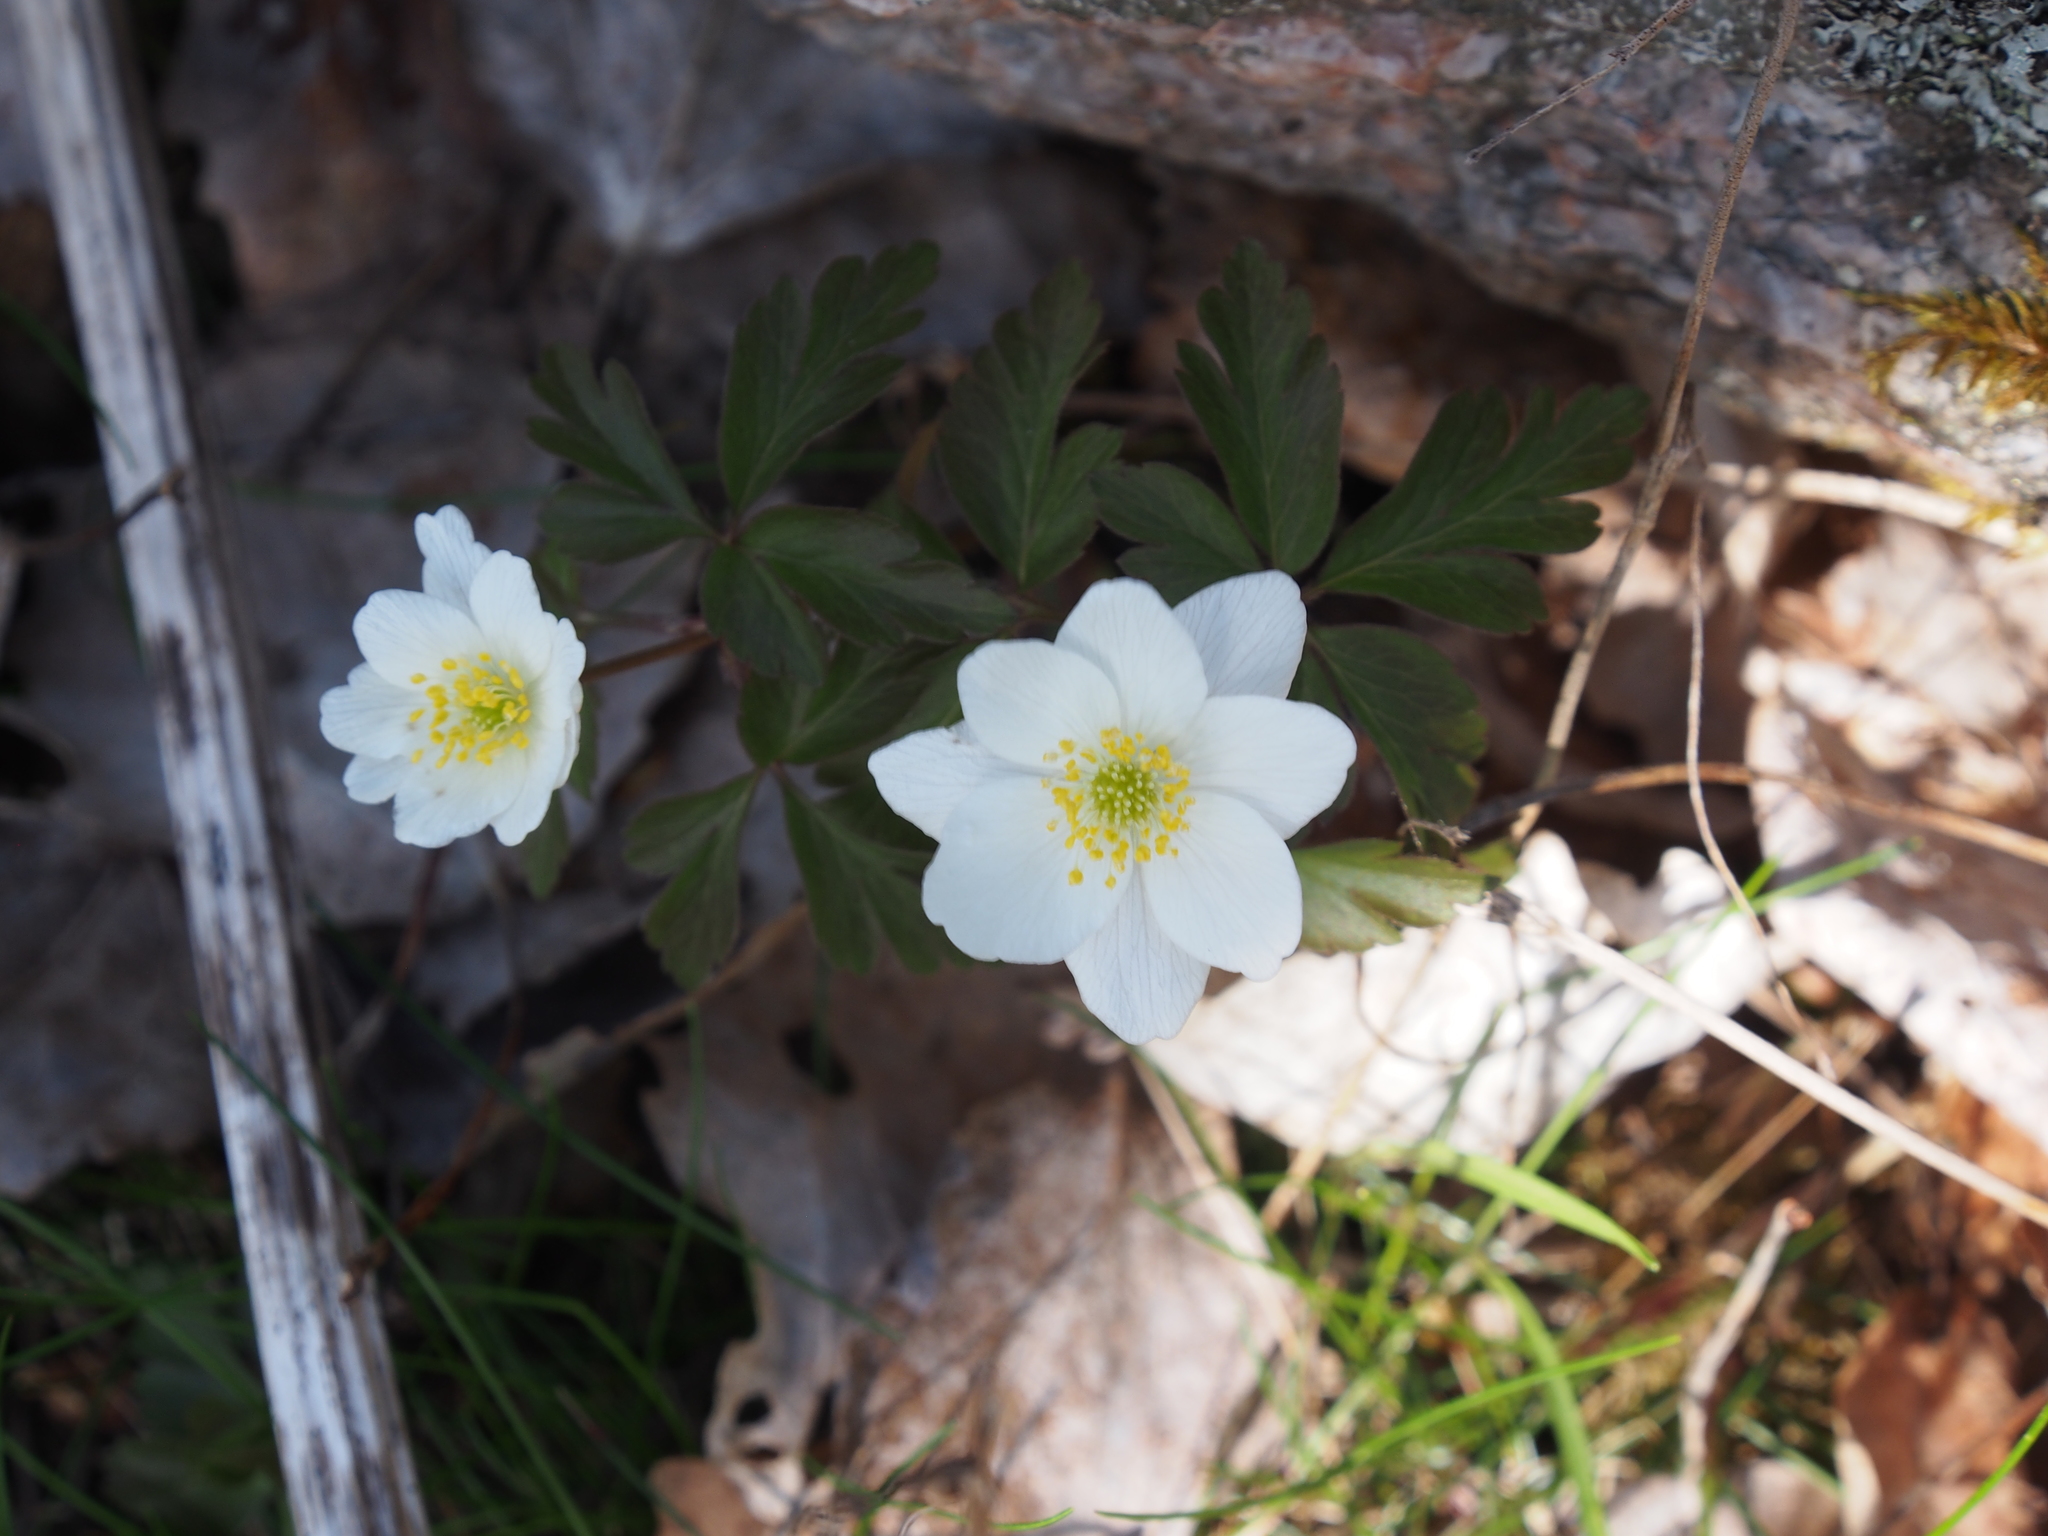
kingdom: Plantae
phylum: Tracheophyta
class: Magnoliopsida
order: Ranunculales
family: Ranunculaceae
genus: Anemone
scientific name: Anemone nemorosa
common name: Wood anemone
